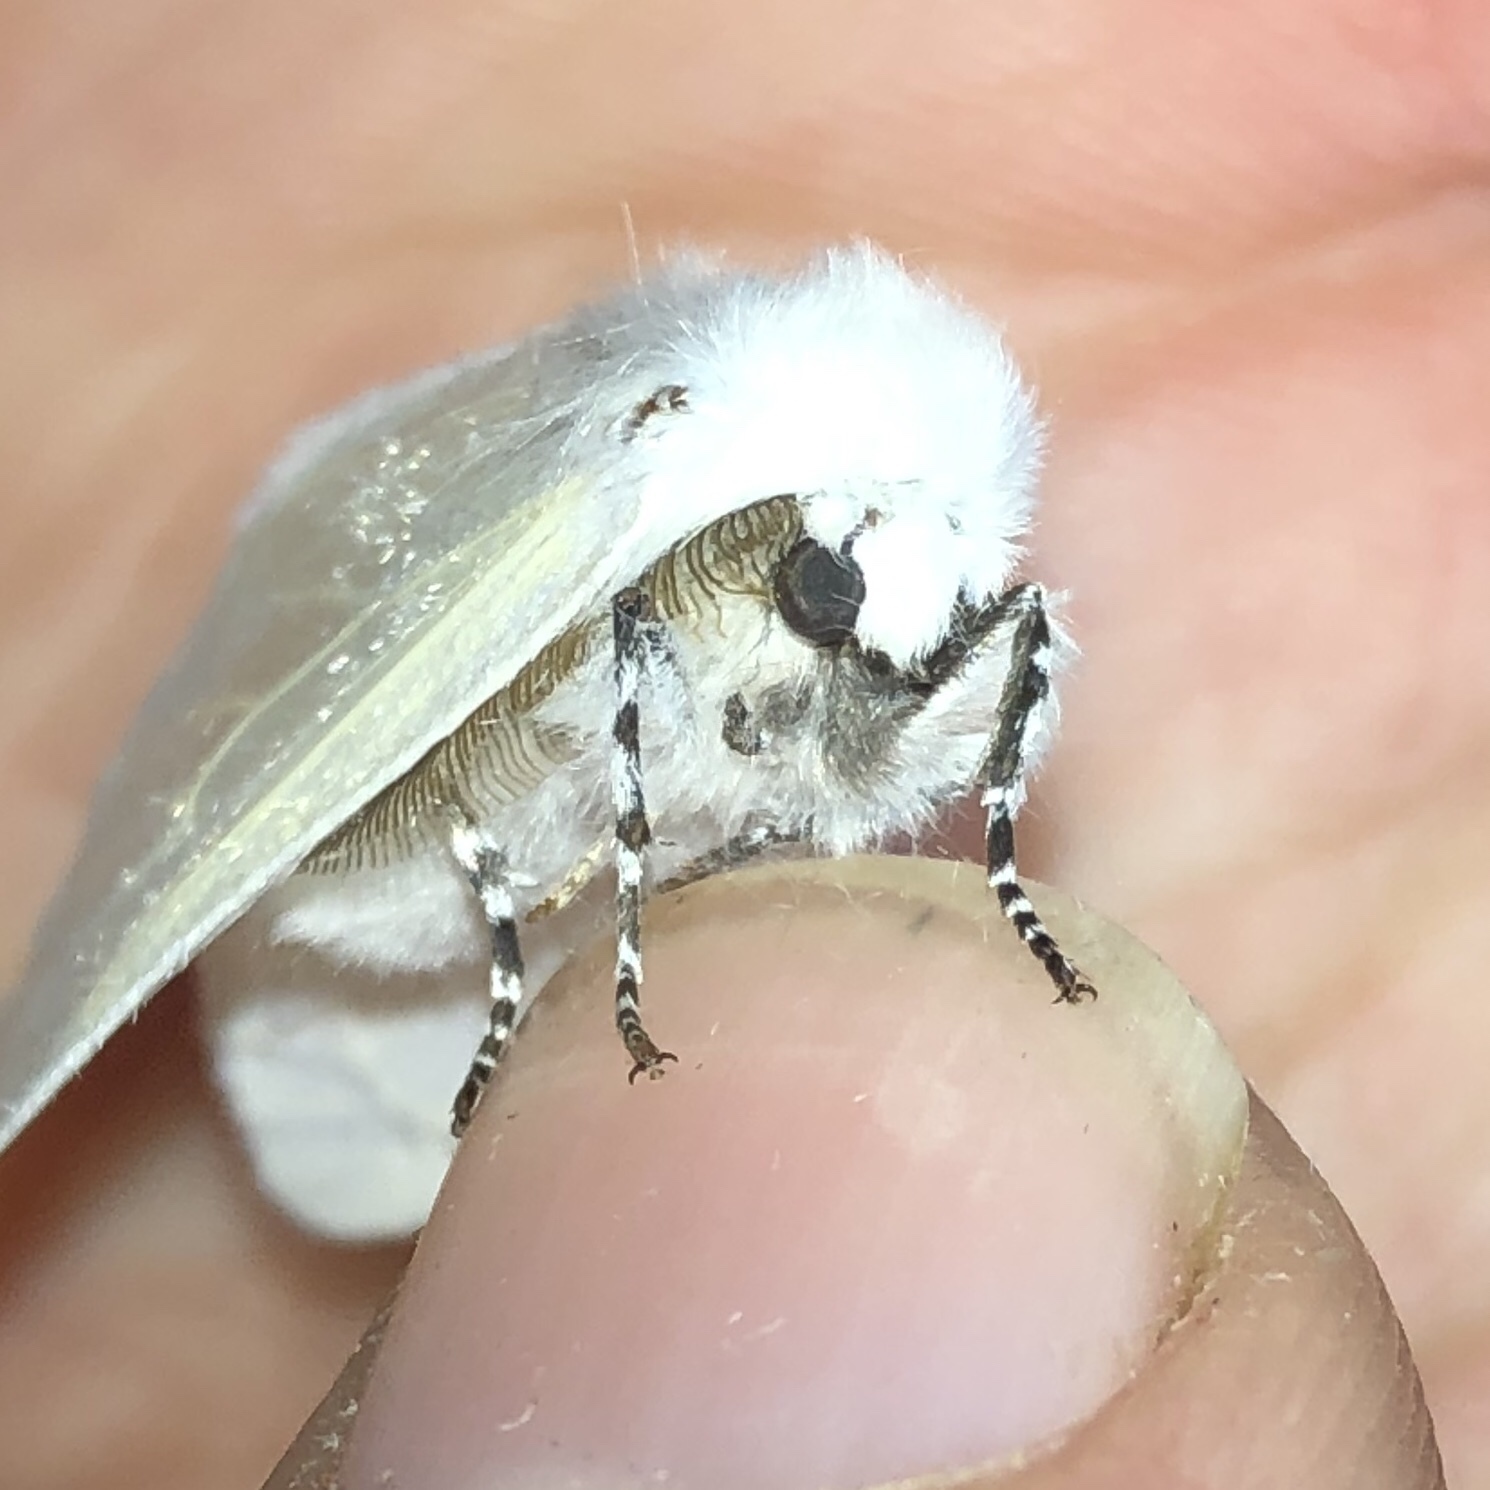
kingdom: Animalia
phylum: Arthropoda
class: Insecta
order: Lepidoptera
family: Erebidae
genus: Leucoma
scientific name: Leucoma salicis
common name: White satin moth
